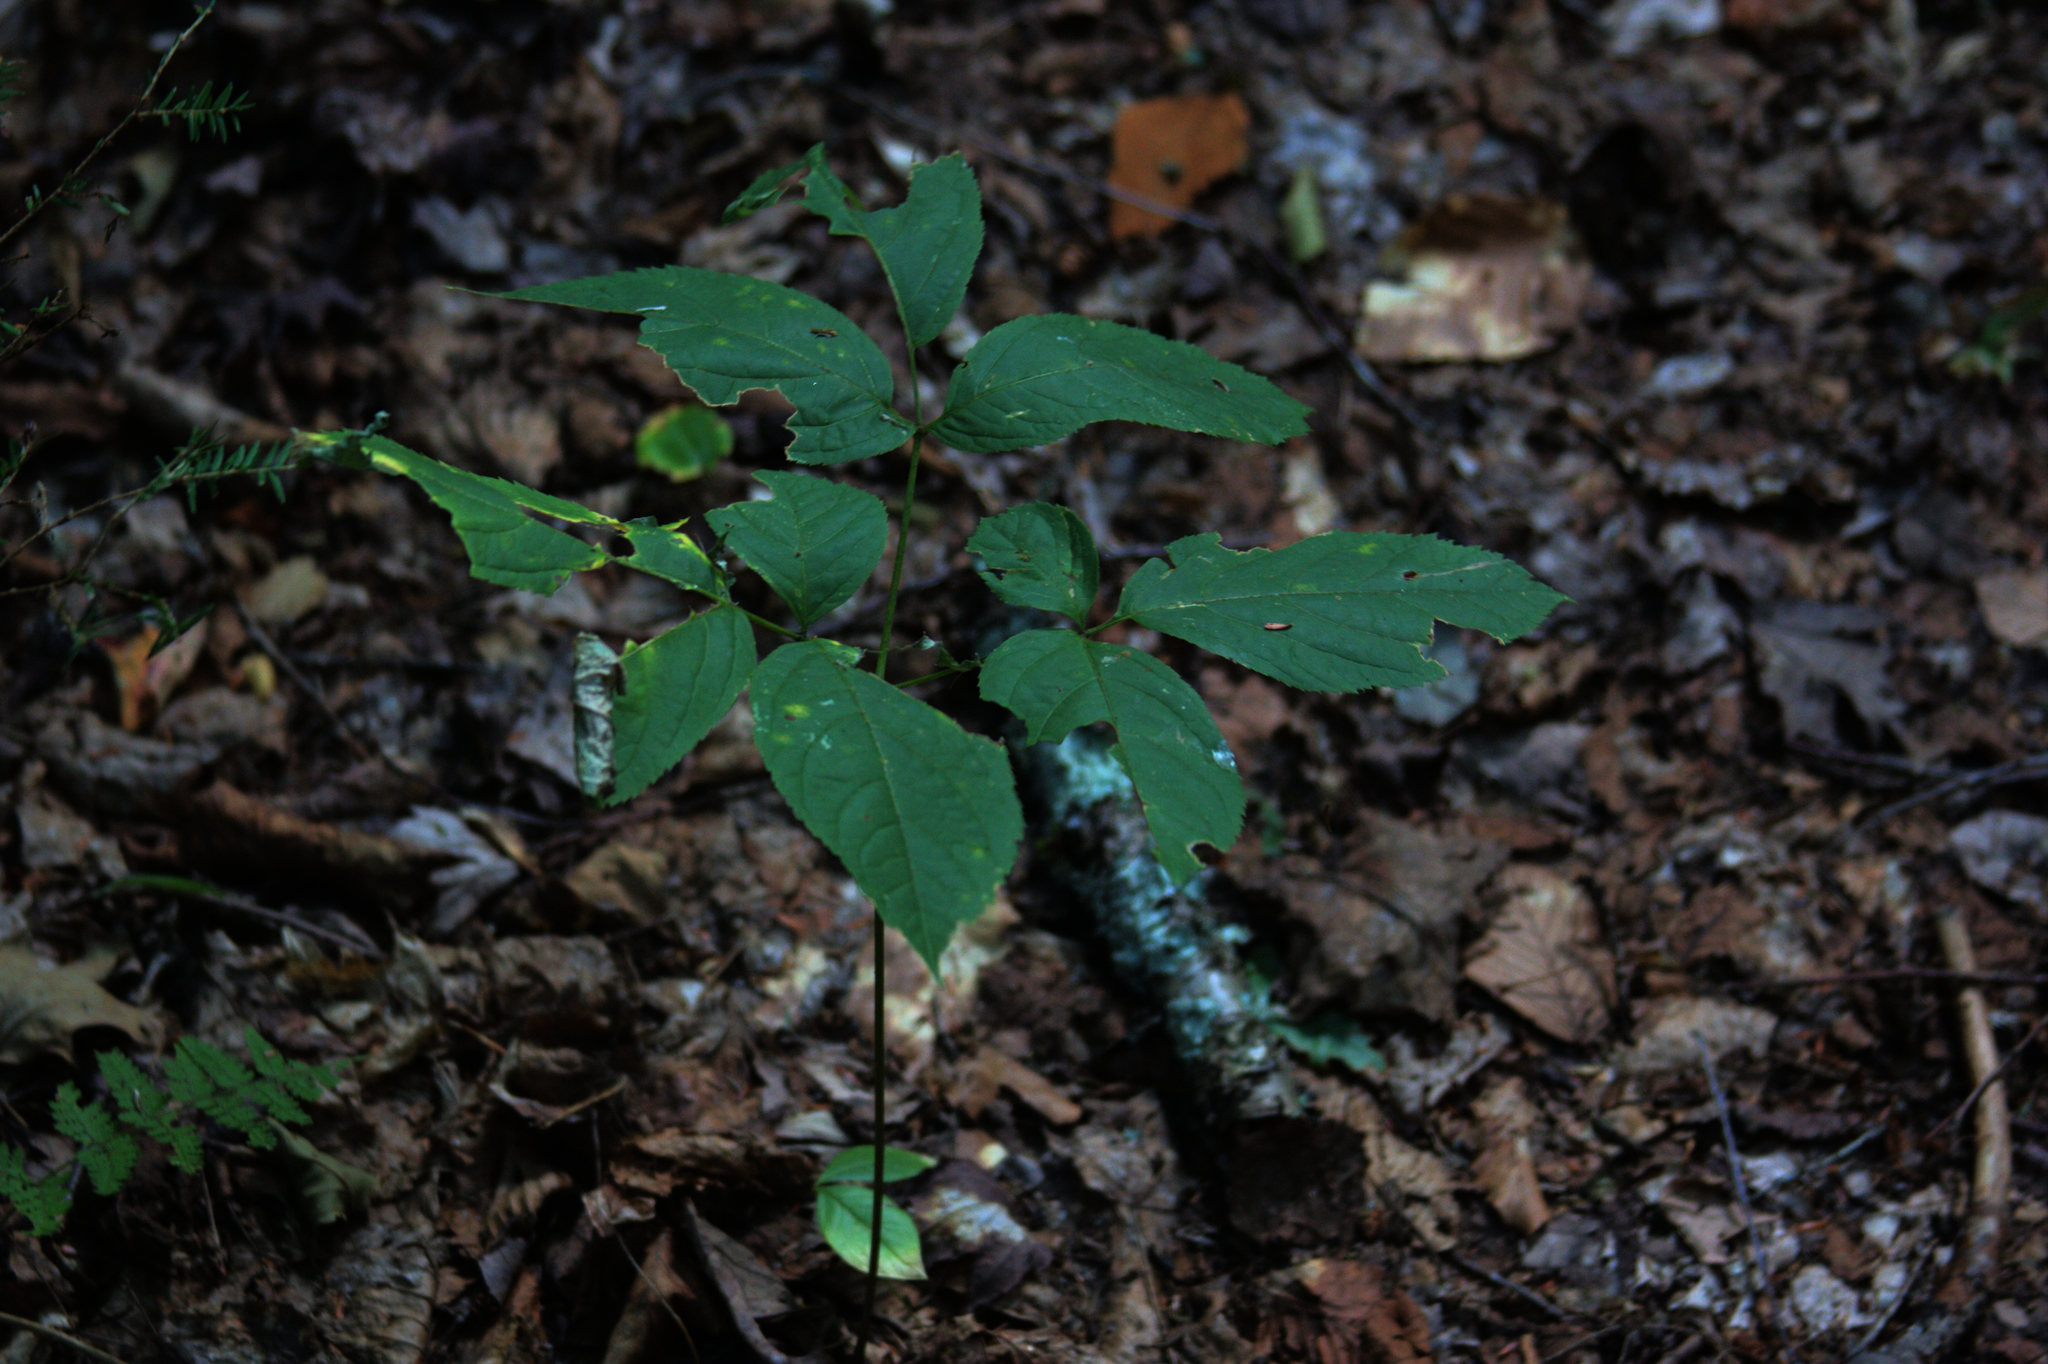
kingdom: Plantae
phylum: Tracheophyta
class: Magnoliopsida
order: Apiales
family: Araliaceae
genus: Aralia
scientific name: Aralia nudicaulis
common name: Wild sarsaparilla
